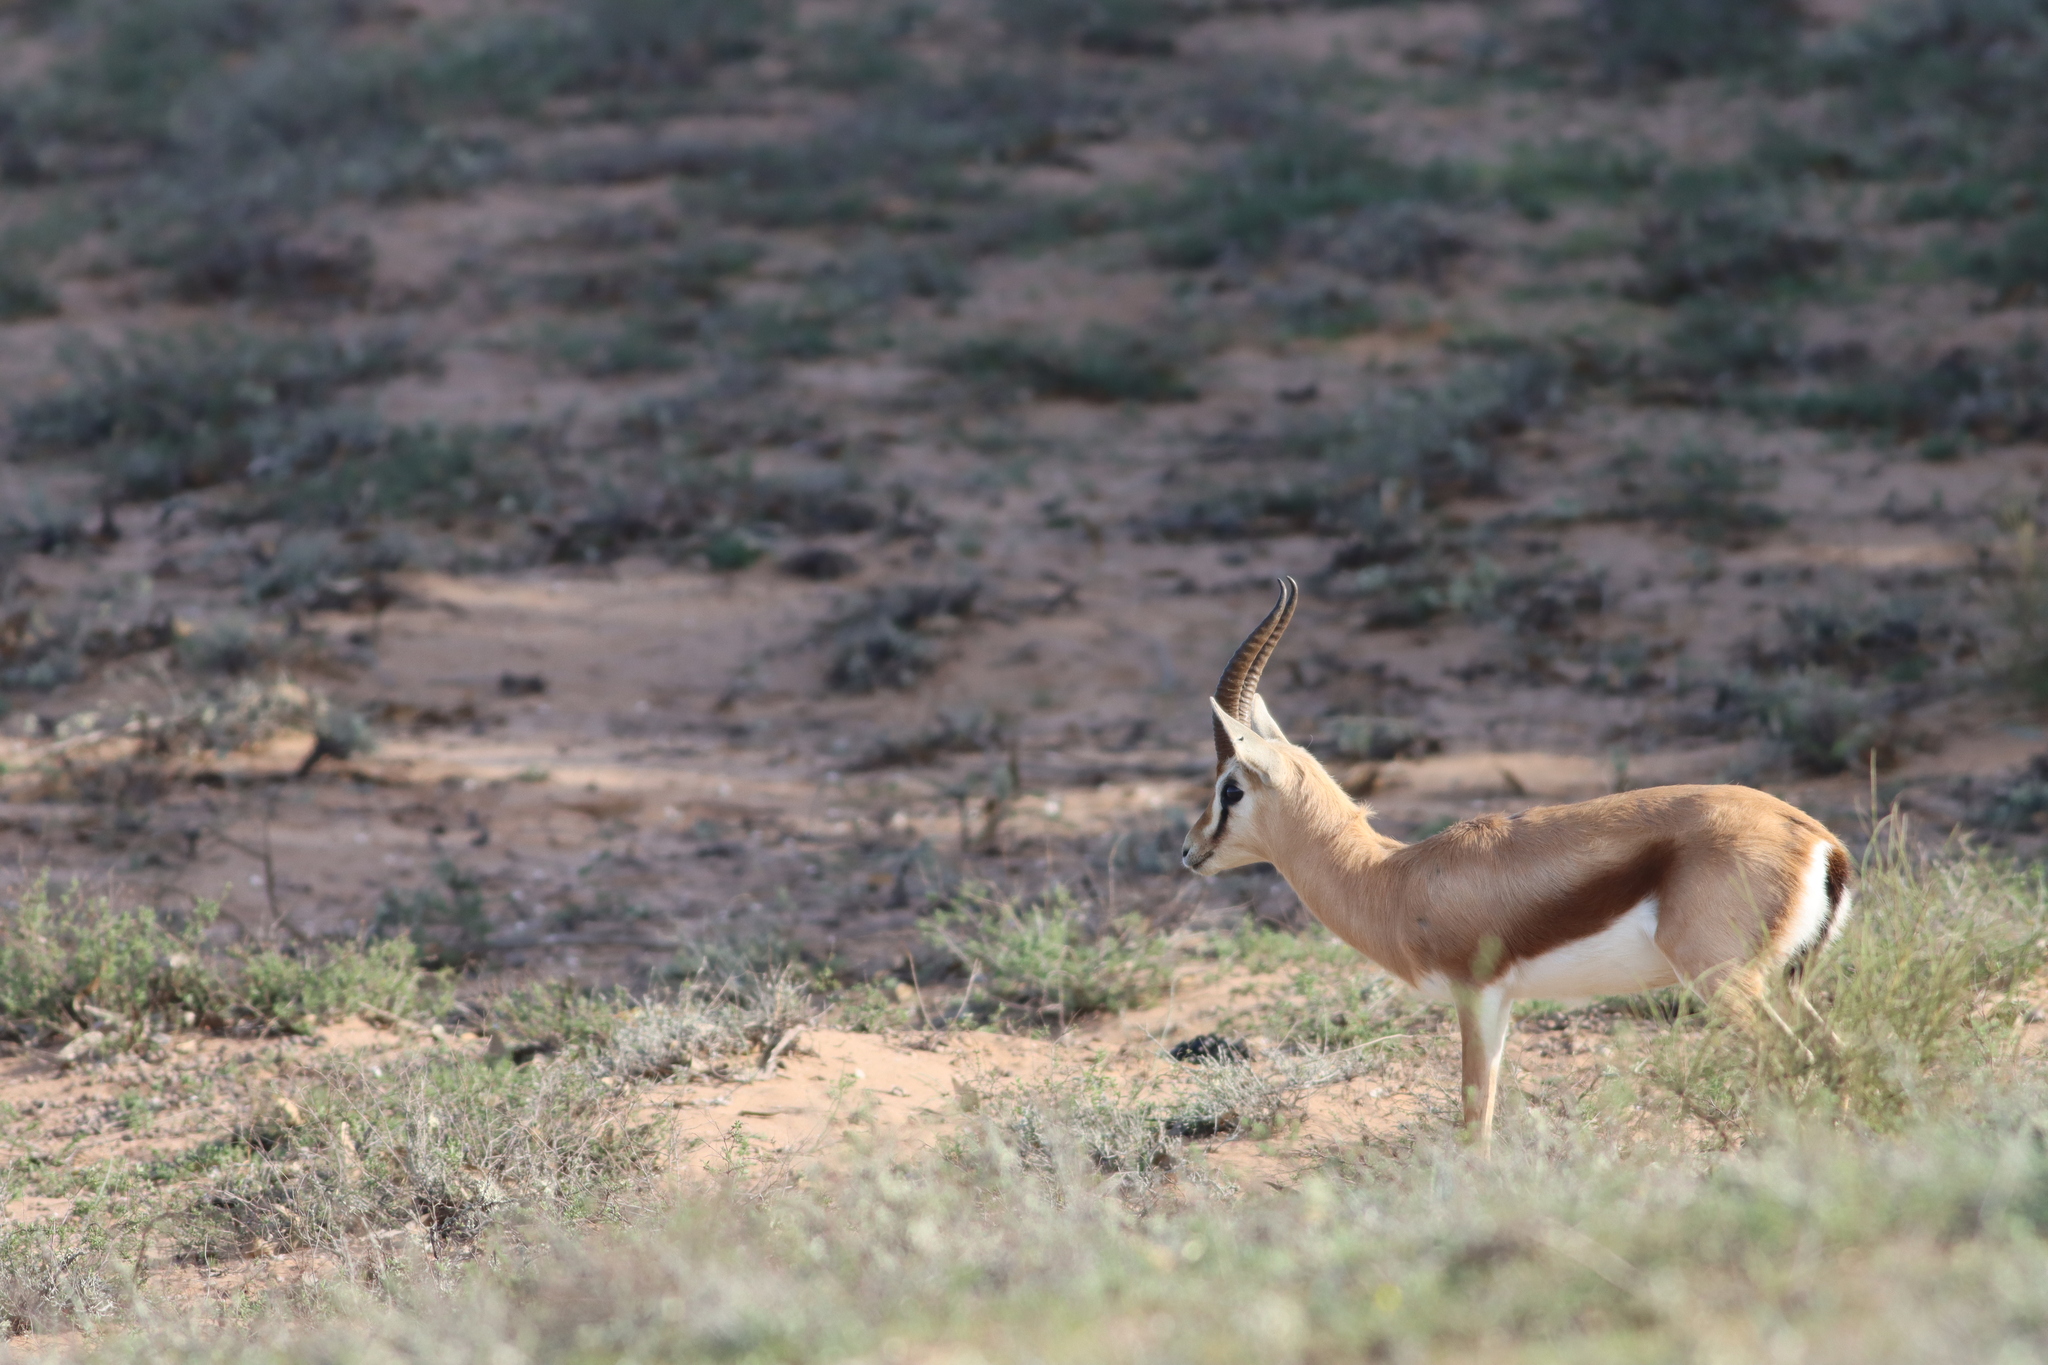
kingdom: Animalia
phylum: Chordata
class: Mammalia
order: Artiodactyla
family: Bovidae
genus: Gazella
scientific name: Gazella dorcas
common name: Dorcas gazelle
